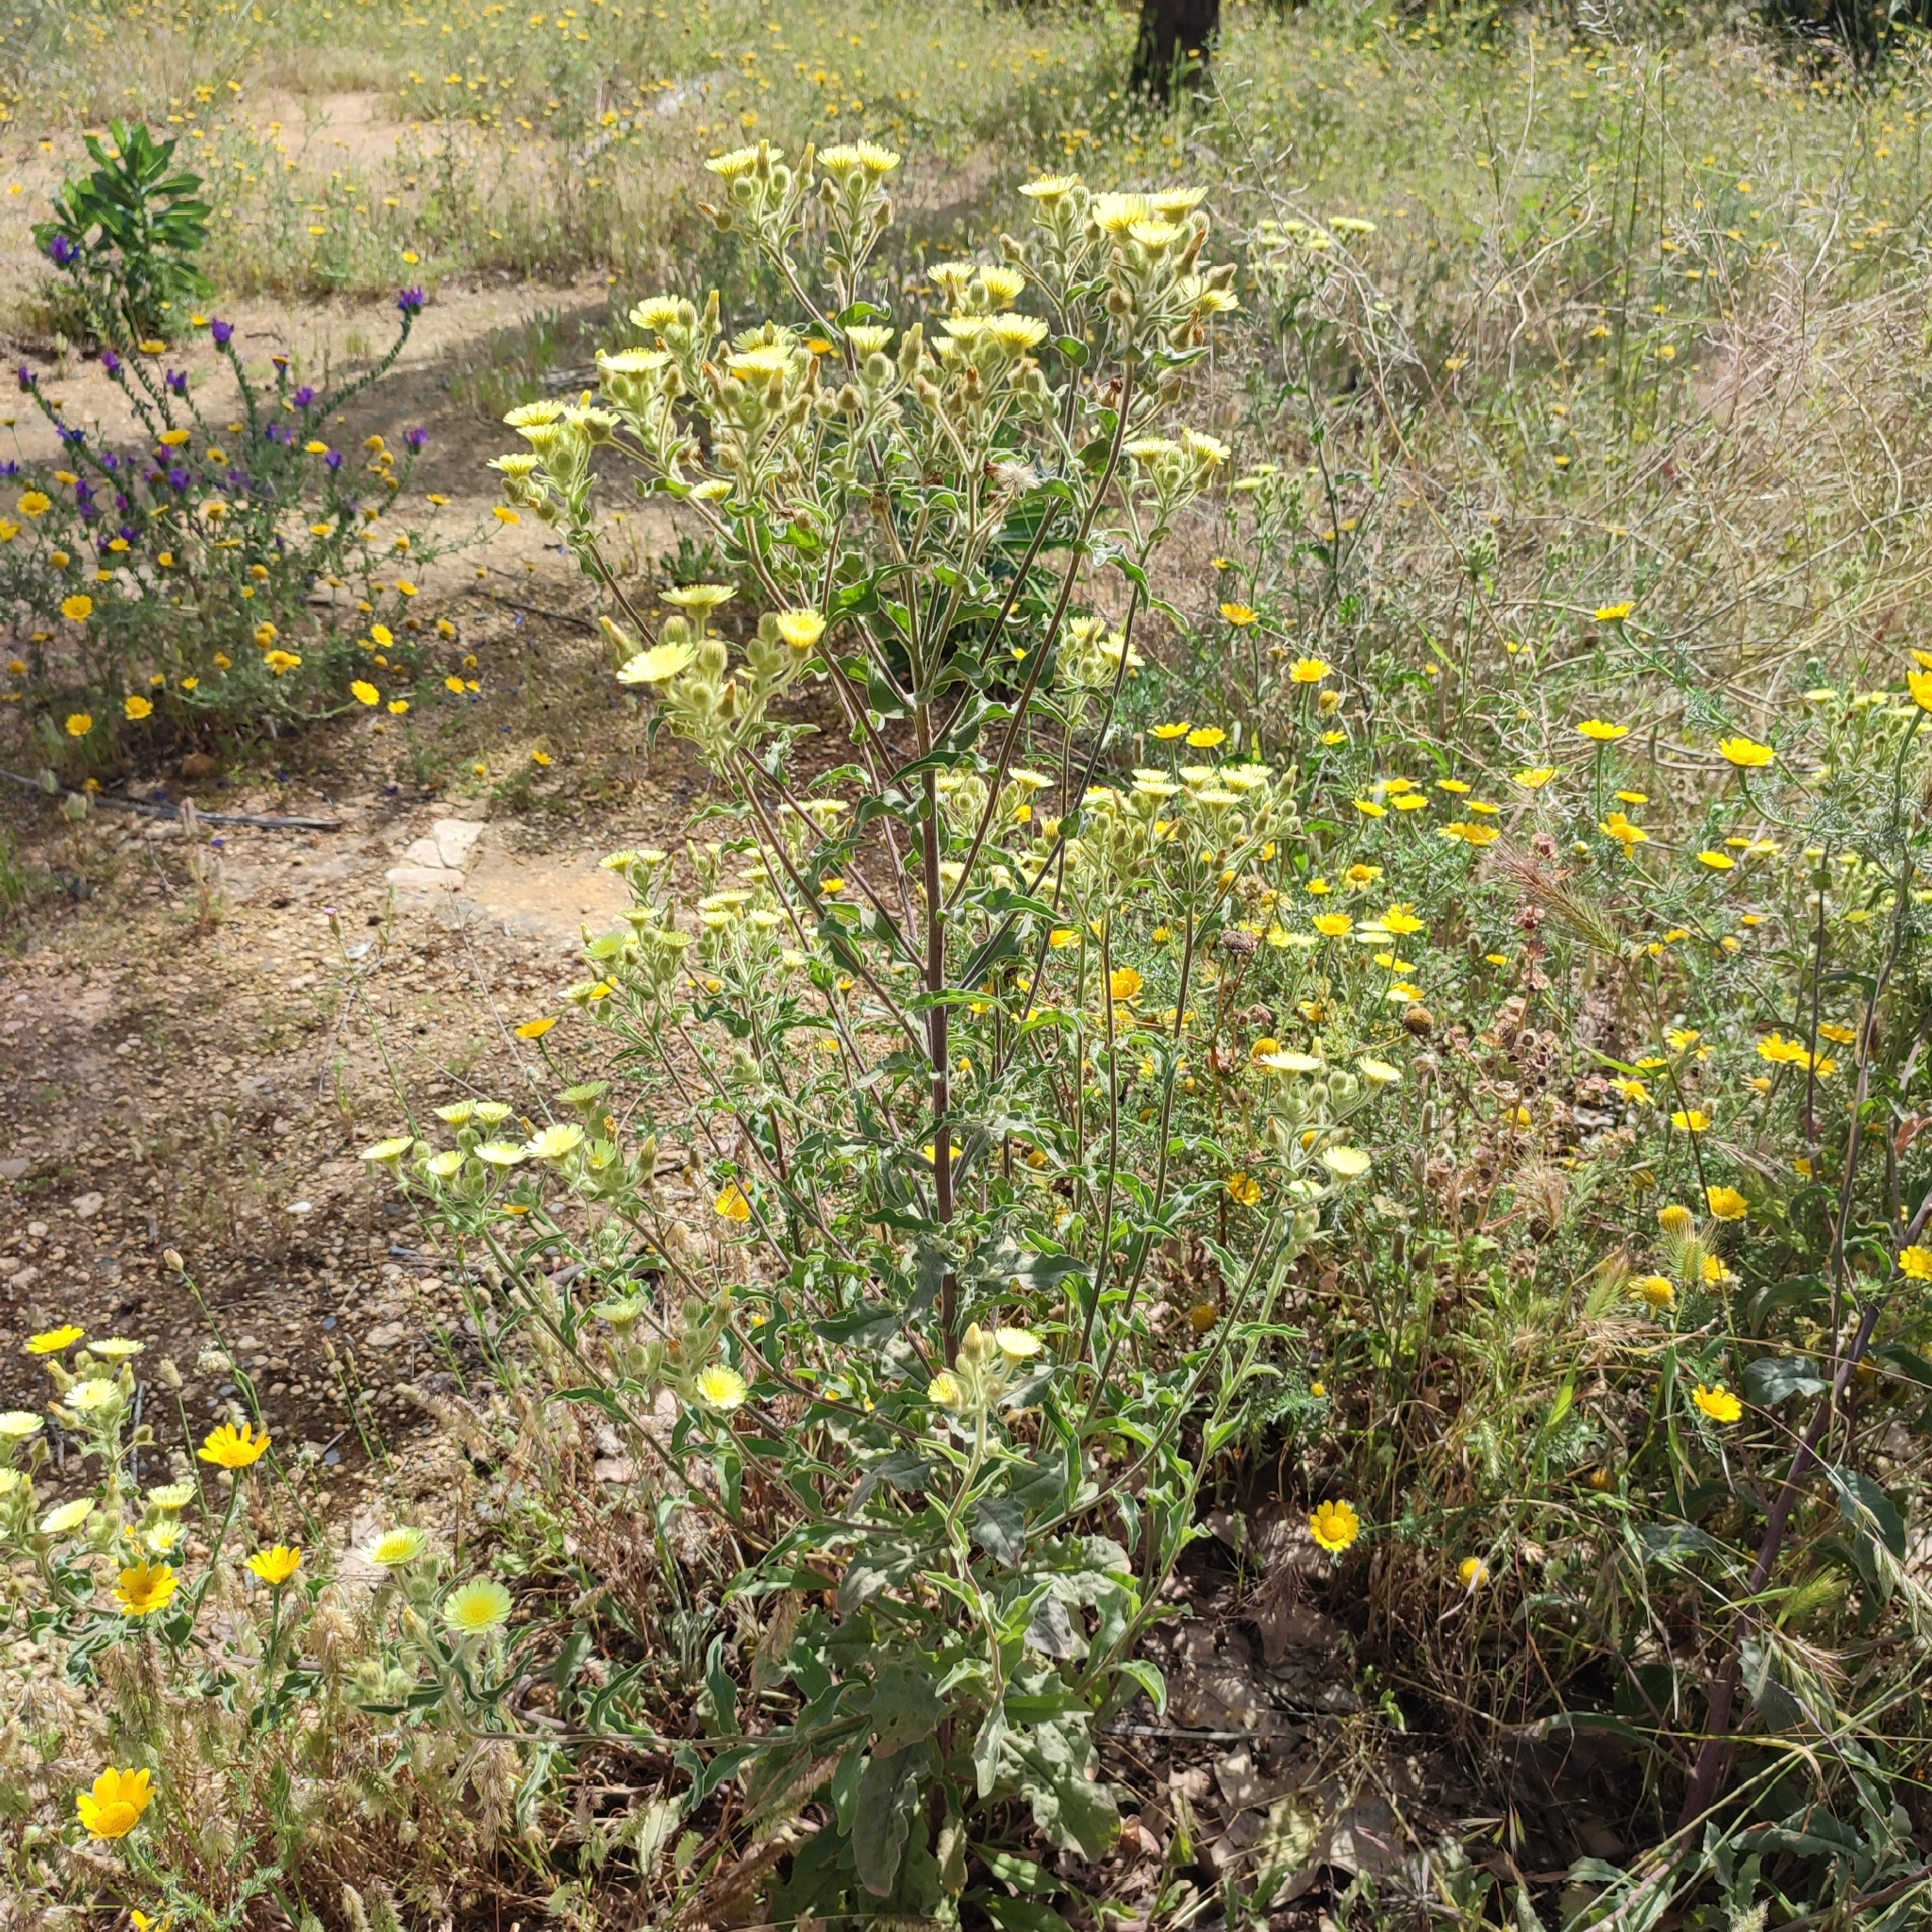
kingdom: Plantae
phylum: Tracheophyta
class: Magnoliopsida
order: Asterales
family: Asteraceae
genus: Andryala
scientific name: Andryala integrifolia
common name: Common andryala
